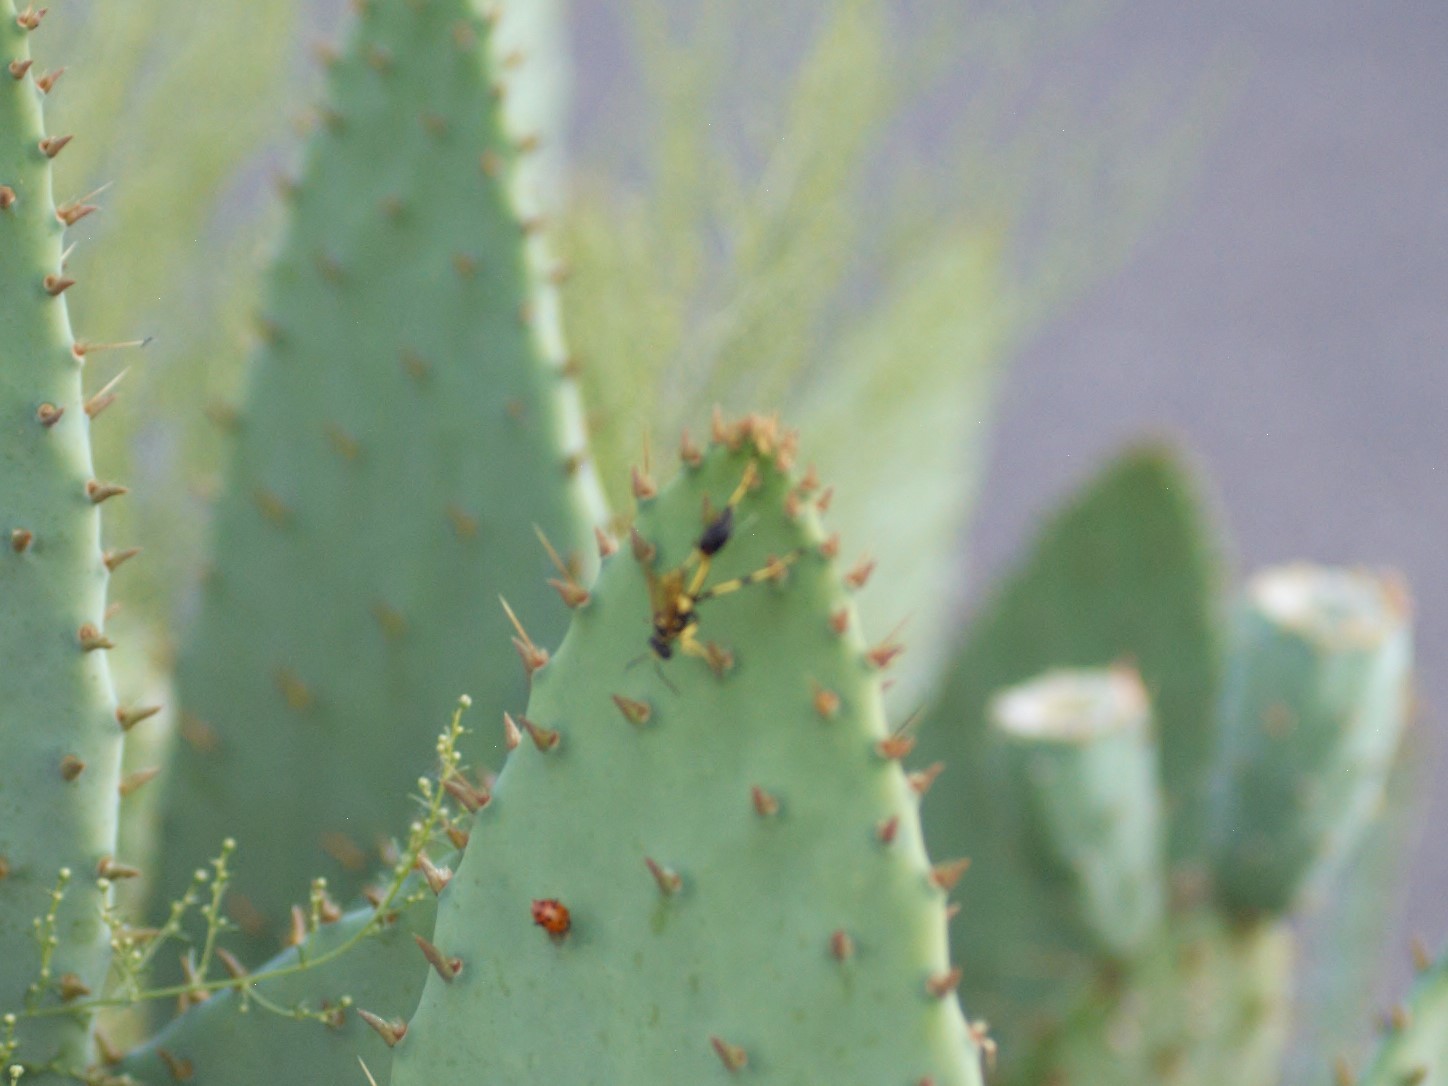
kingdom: Animalia
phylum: Arthropoda
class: Insecta
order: Hymenoptera
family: Sphecidae
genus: Sceliphron
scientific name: Sceliphron caementarium
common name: Mud dauber
